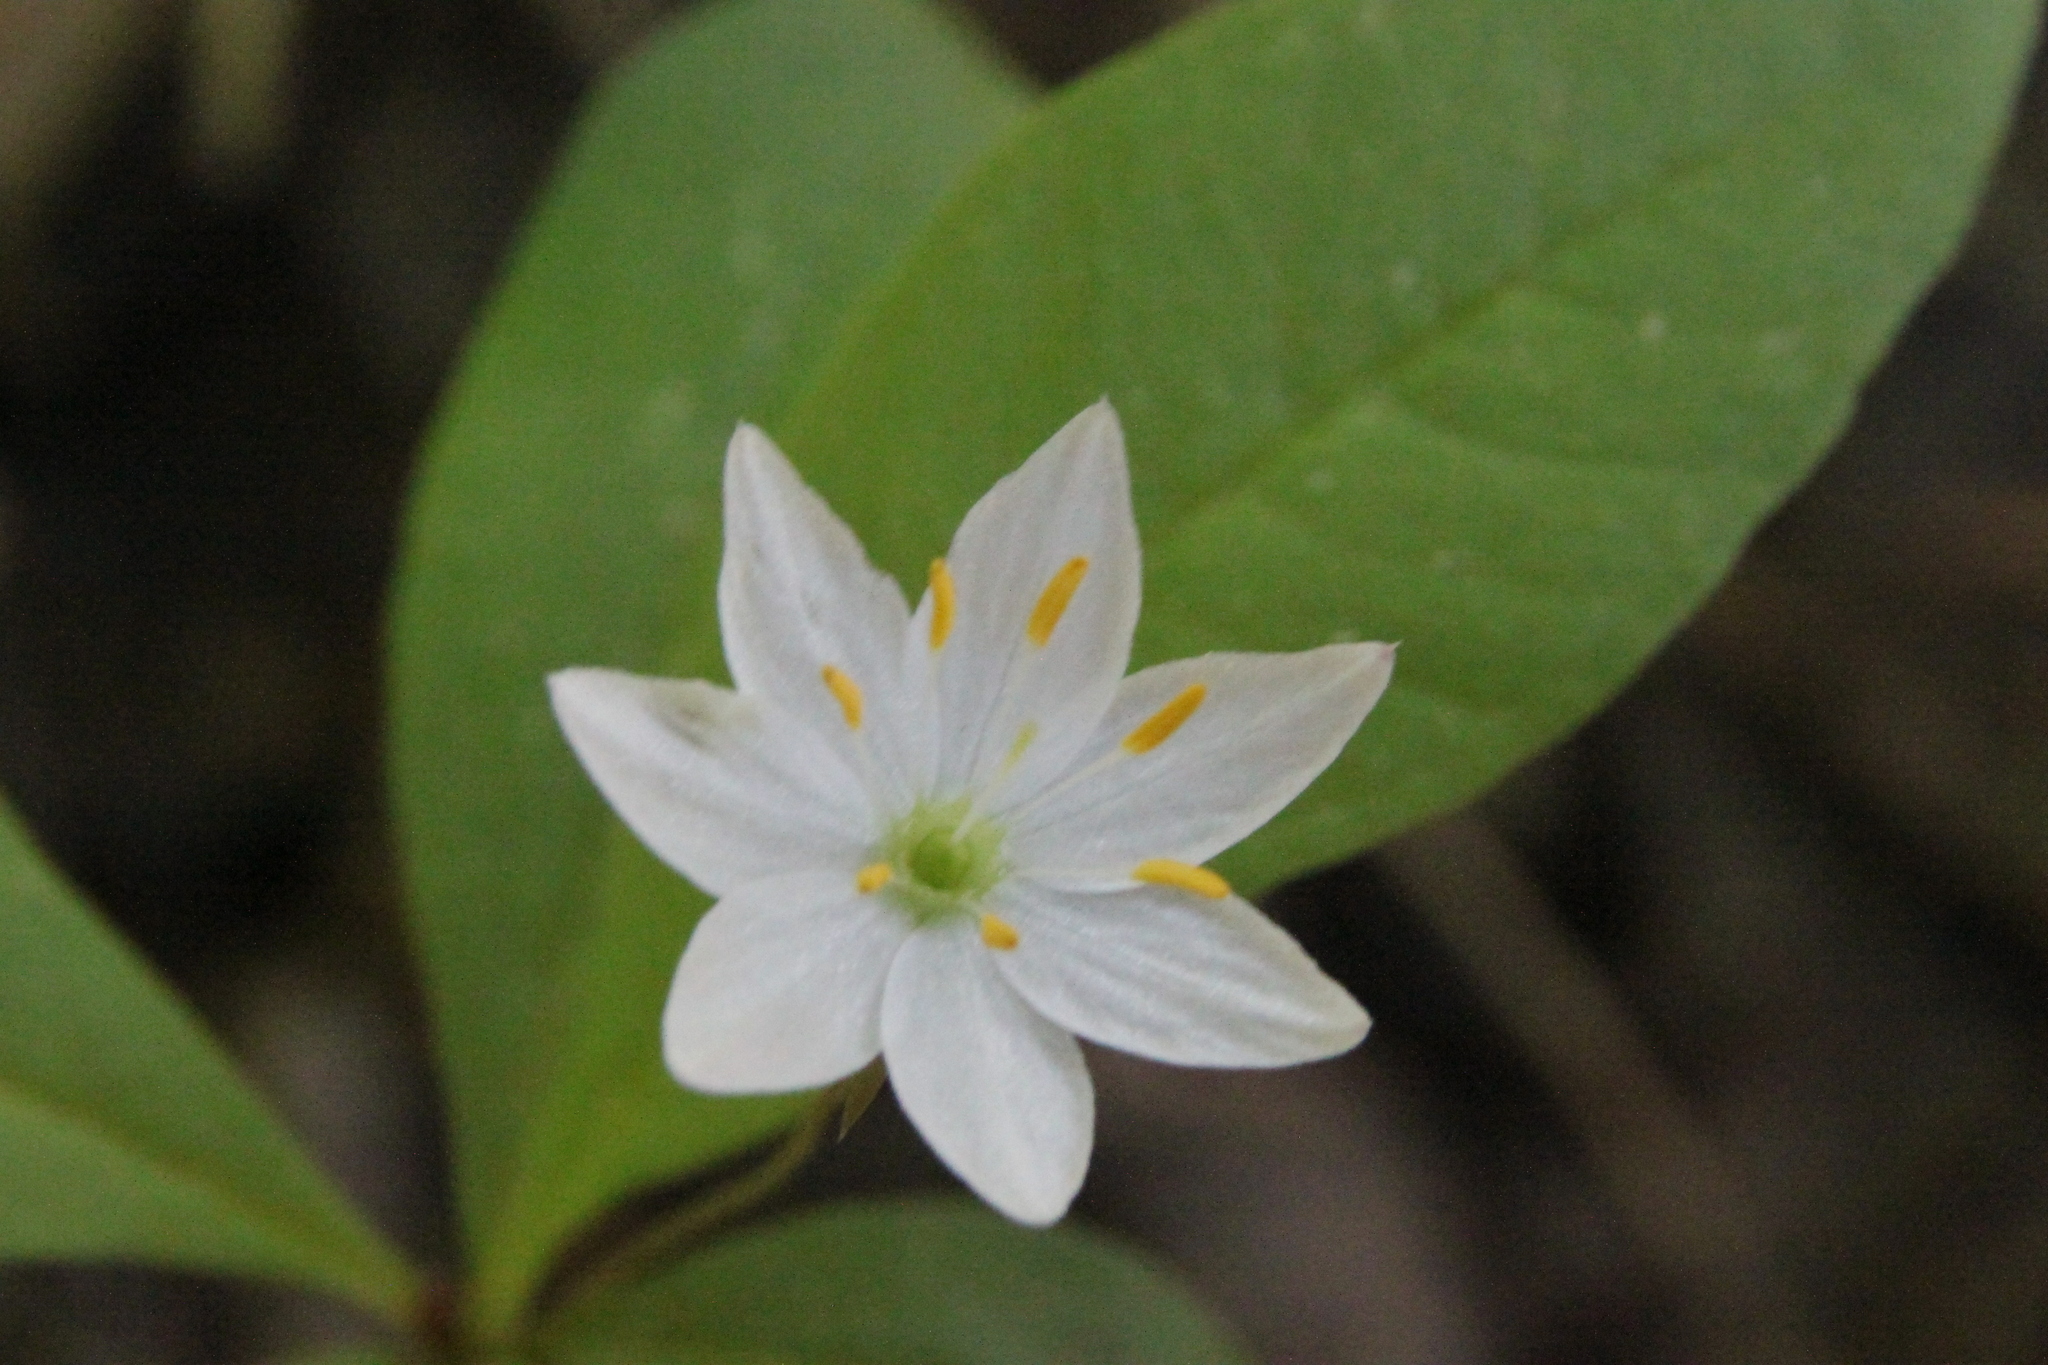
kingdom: Plantae
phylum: Tracheophyta
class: Magnoliopsida
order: Ericales
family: Primulaceae
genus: Lysimachia
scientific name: Lysimachia europaea
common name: Arctic starflower
